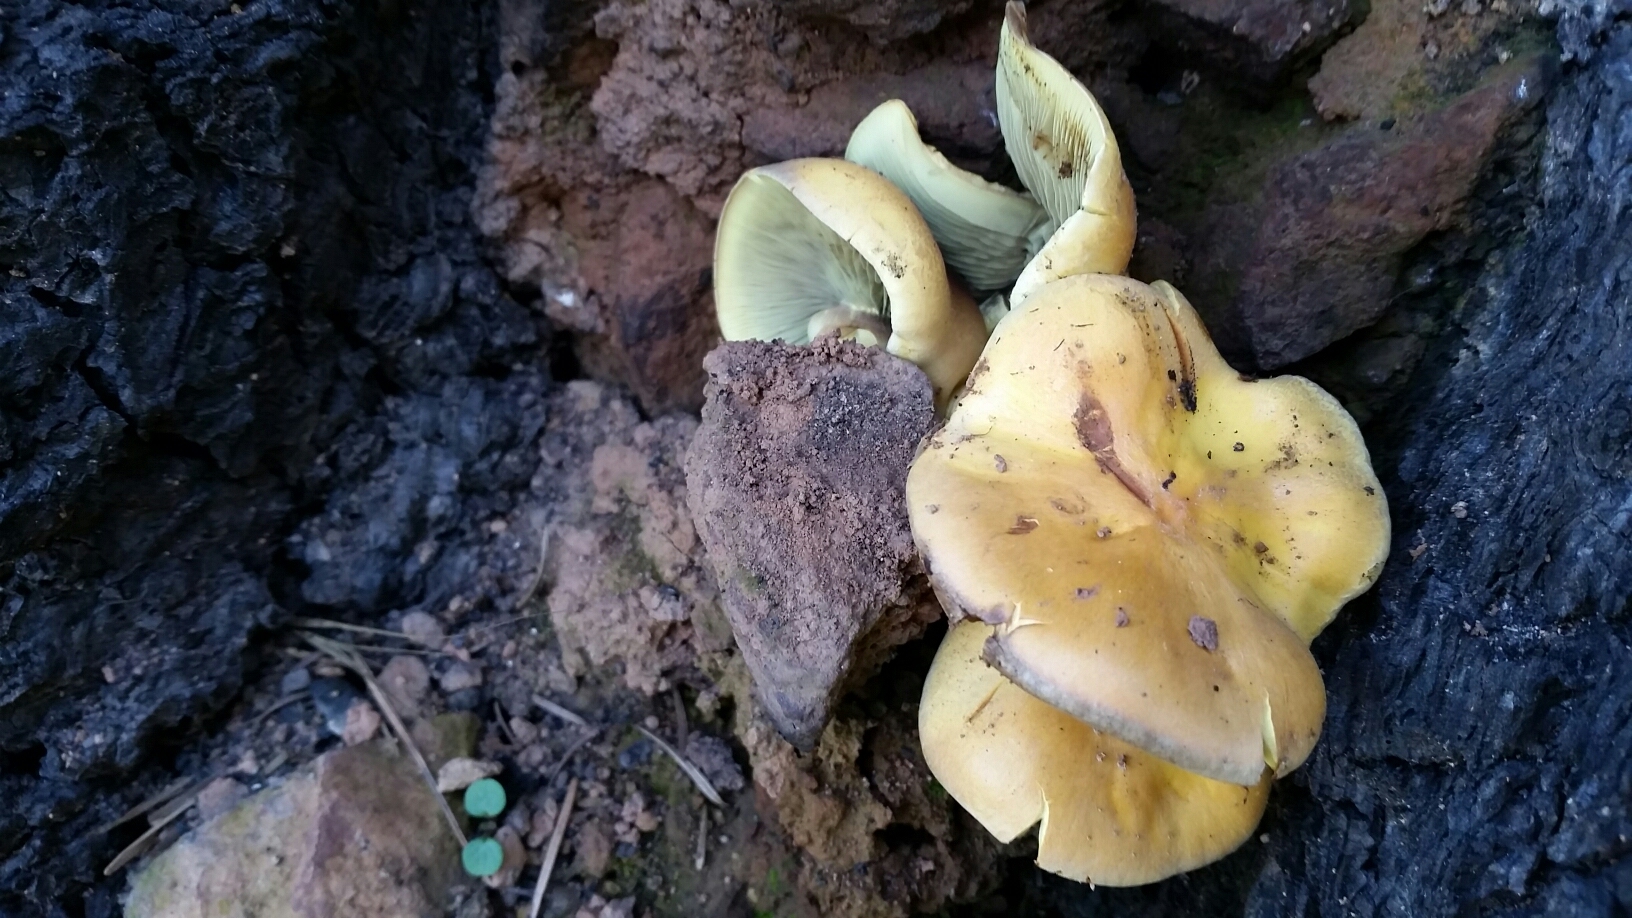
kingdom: Fungi
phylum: Basidiomycota
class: Agaricomycetes
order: Agaricales
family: Strophariaceae
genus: Hypholoma
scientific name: Hypholoma fasciculare
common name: Sulphur tuft
